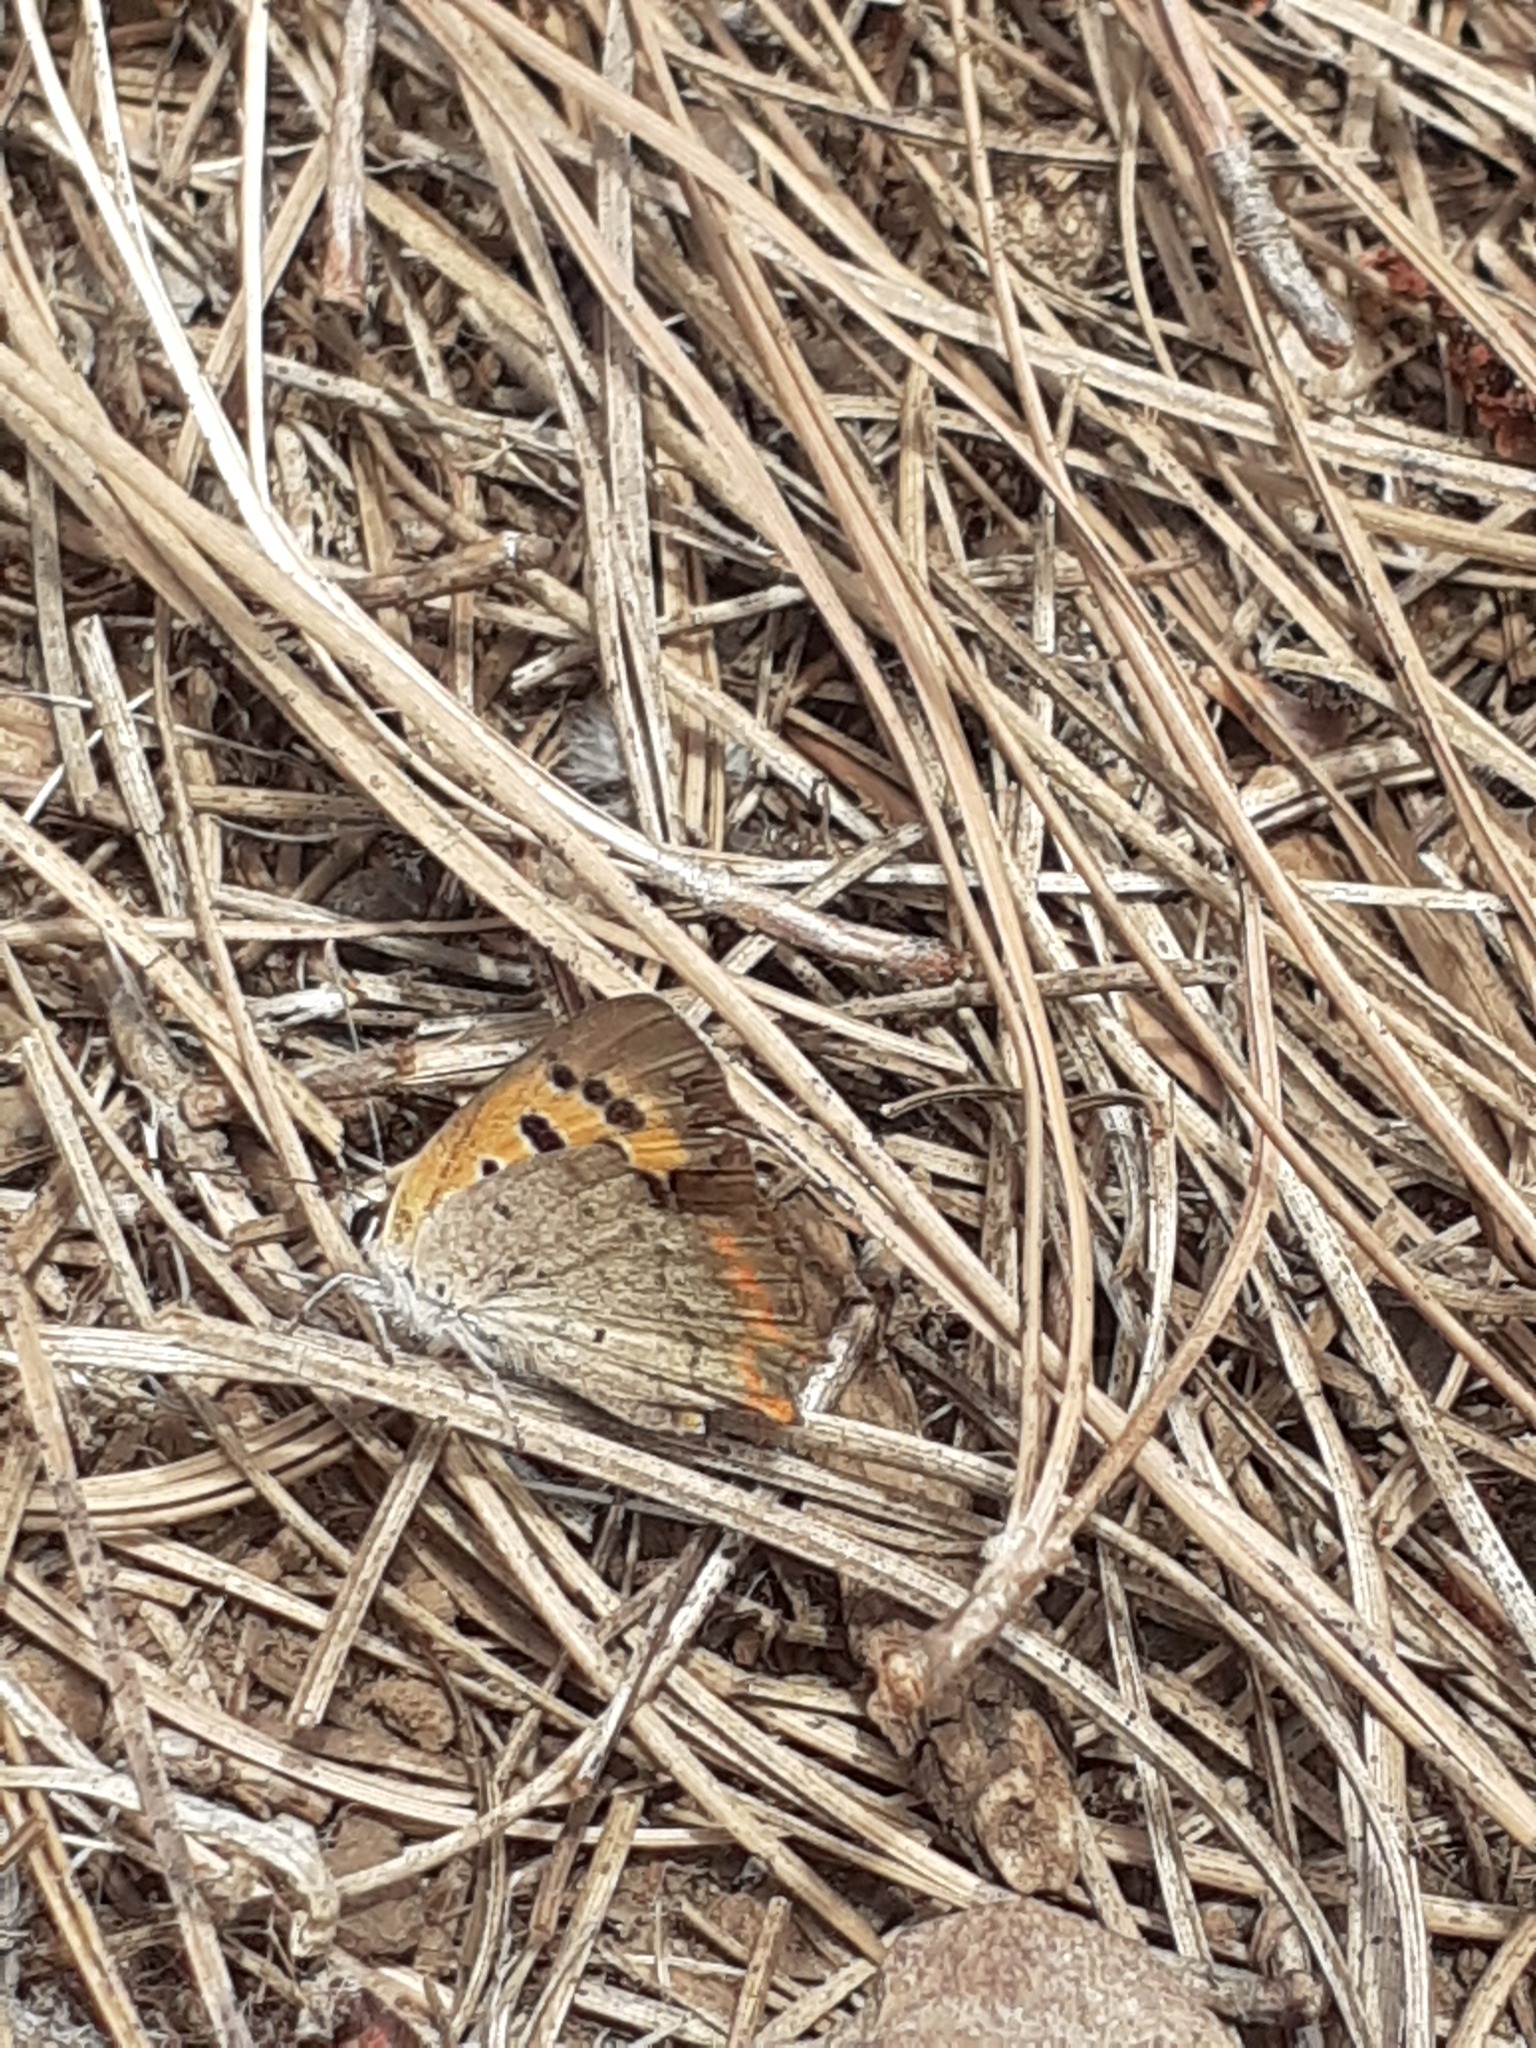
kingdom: Animalia
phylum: Arthropoda
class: Insecta
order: Lepidoptera
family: Lycaenidae
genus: Lycaena
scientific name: Lycaena phlaeas
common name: Small copper
